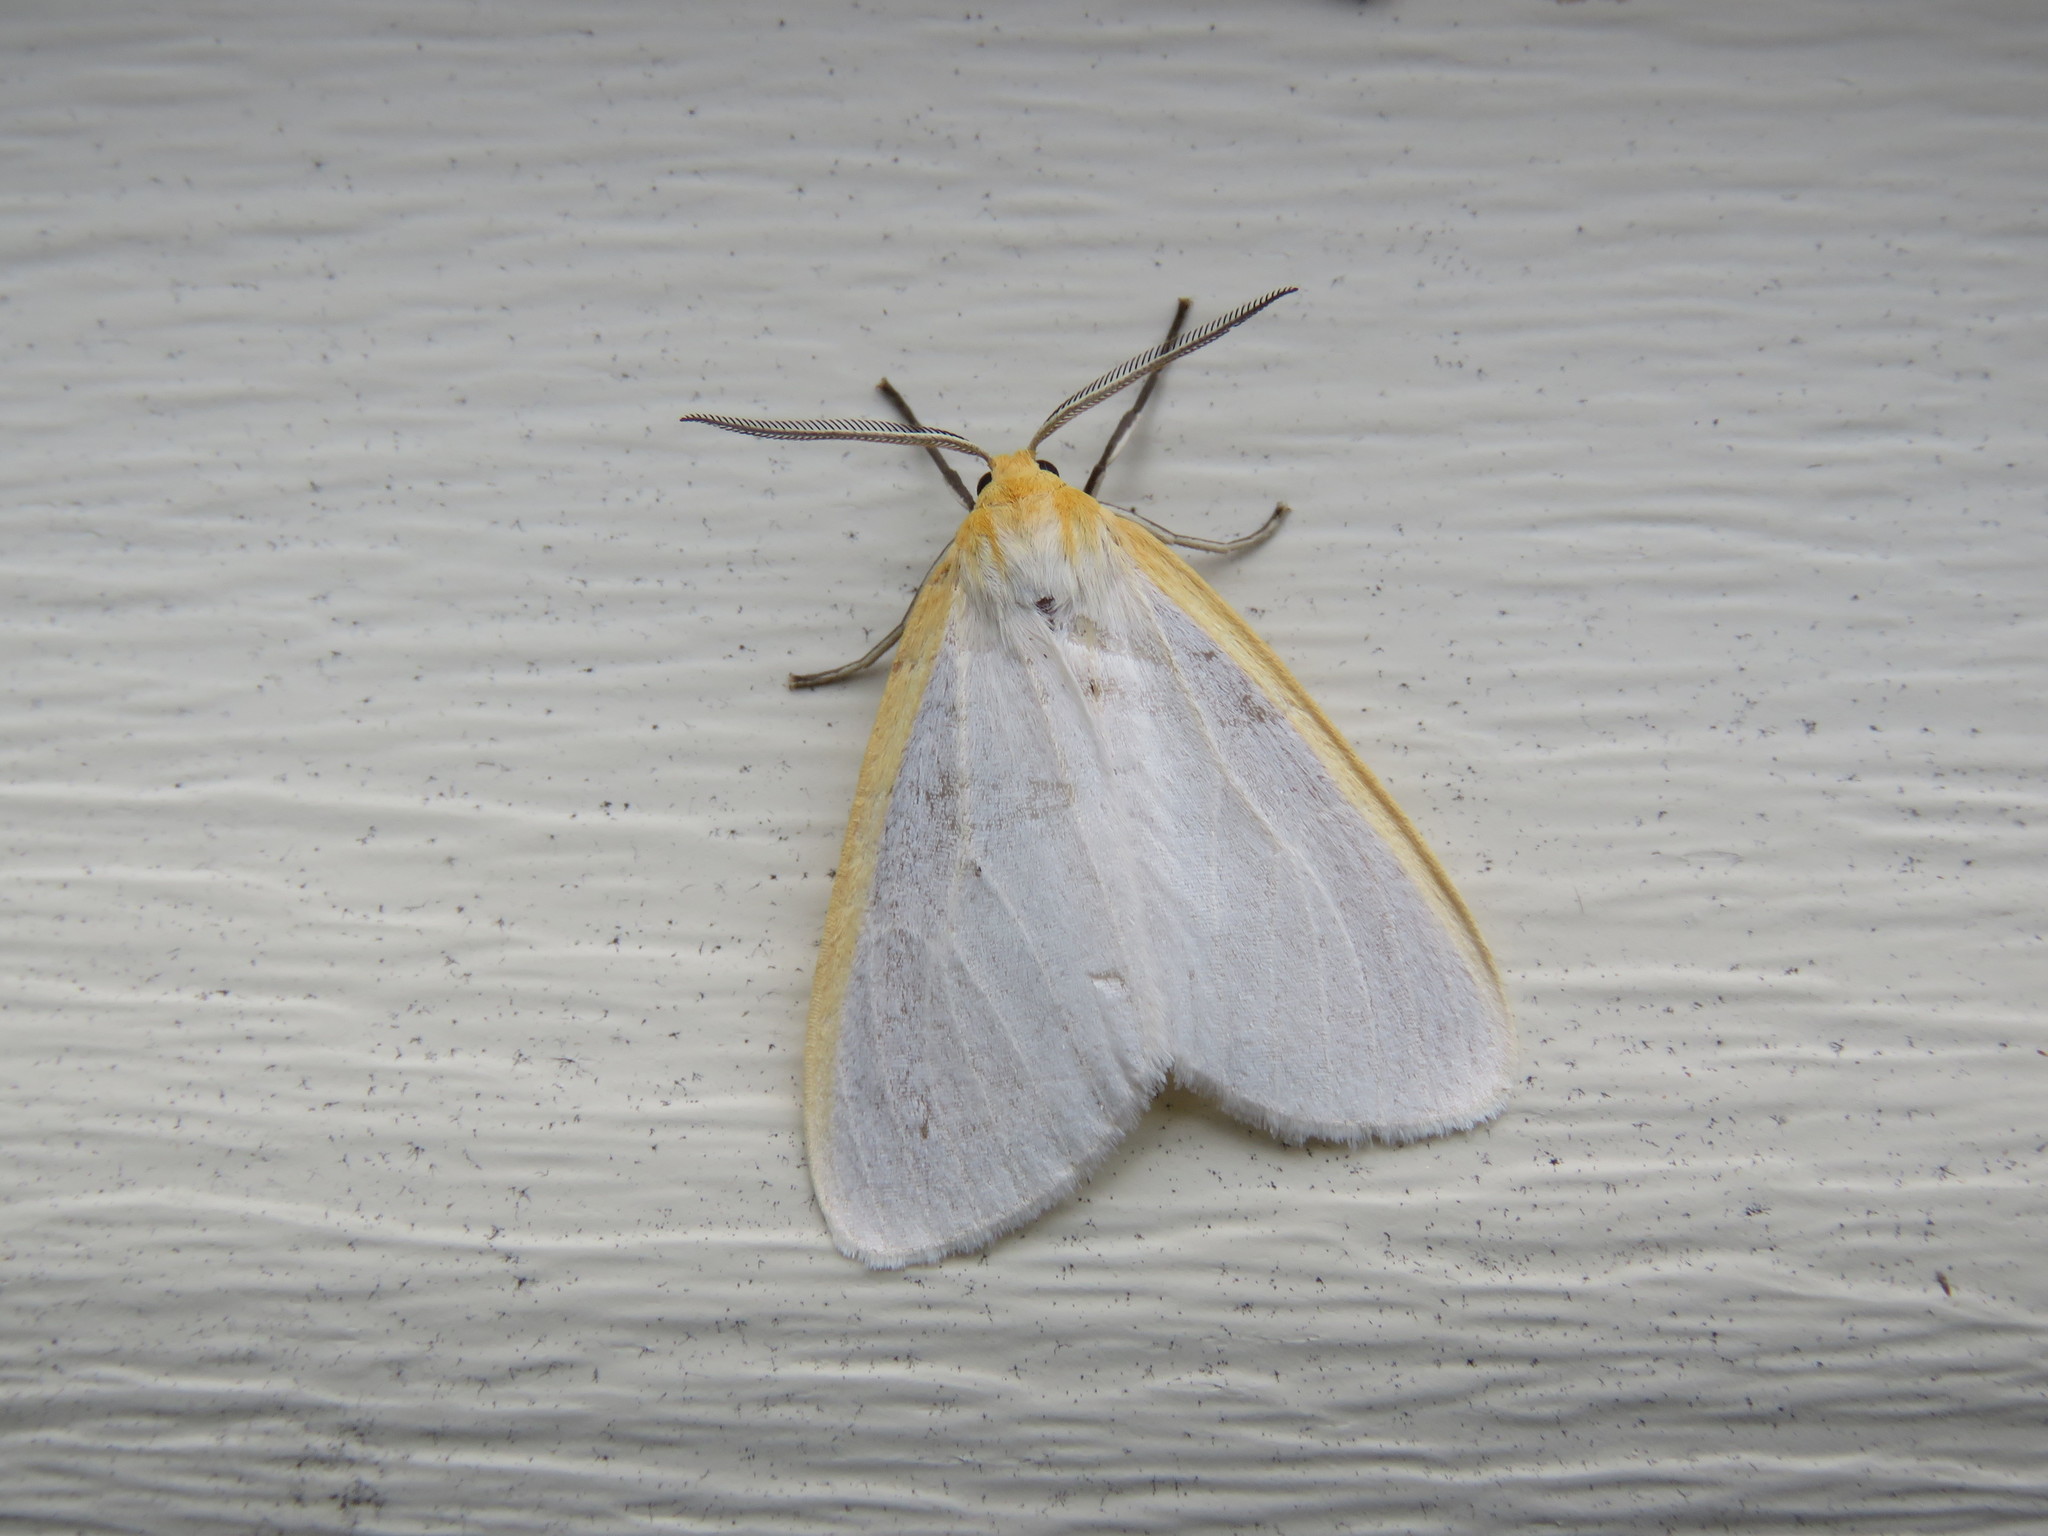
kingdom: Animalia
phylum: Arthropoda
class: Insecta
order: Lepidoptera
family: Erebidae
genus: Cycnia
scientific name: Cycnia tenera
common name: Delicate cycnia moth
